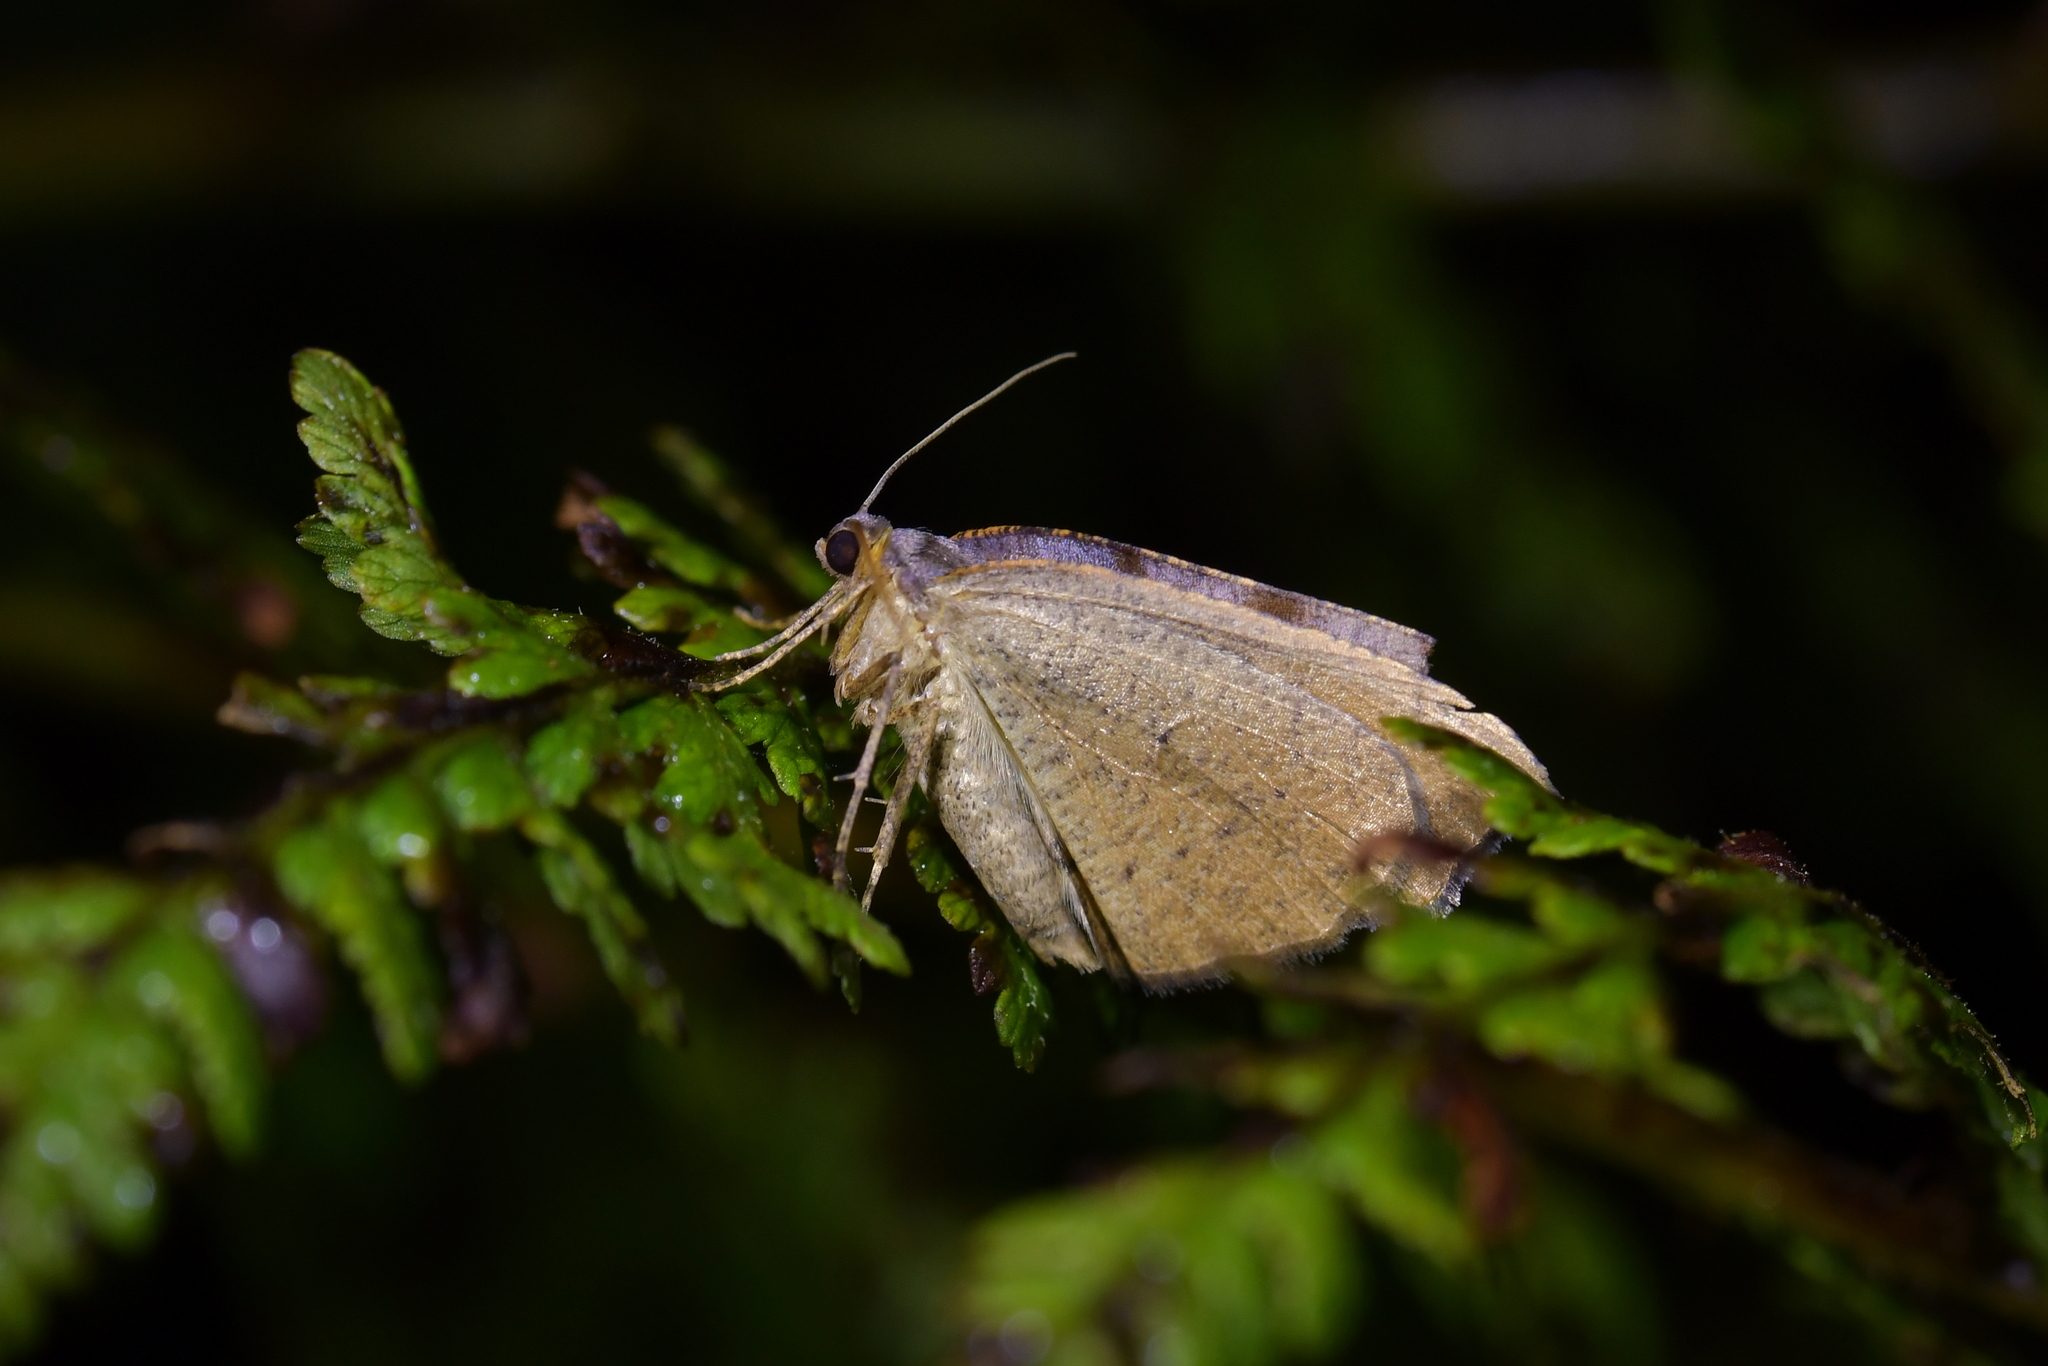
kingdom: Animalia
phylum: Arthropoda
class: Insecta
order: Lepidoptera
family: Geometridae
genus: Sestra
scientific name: Sestra flexata
